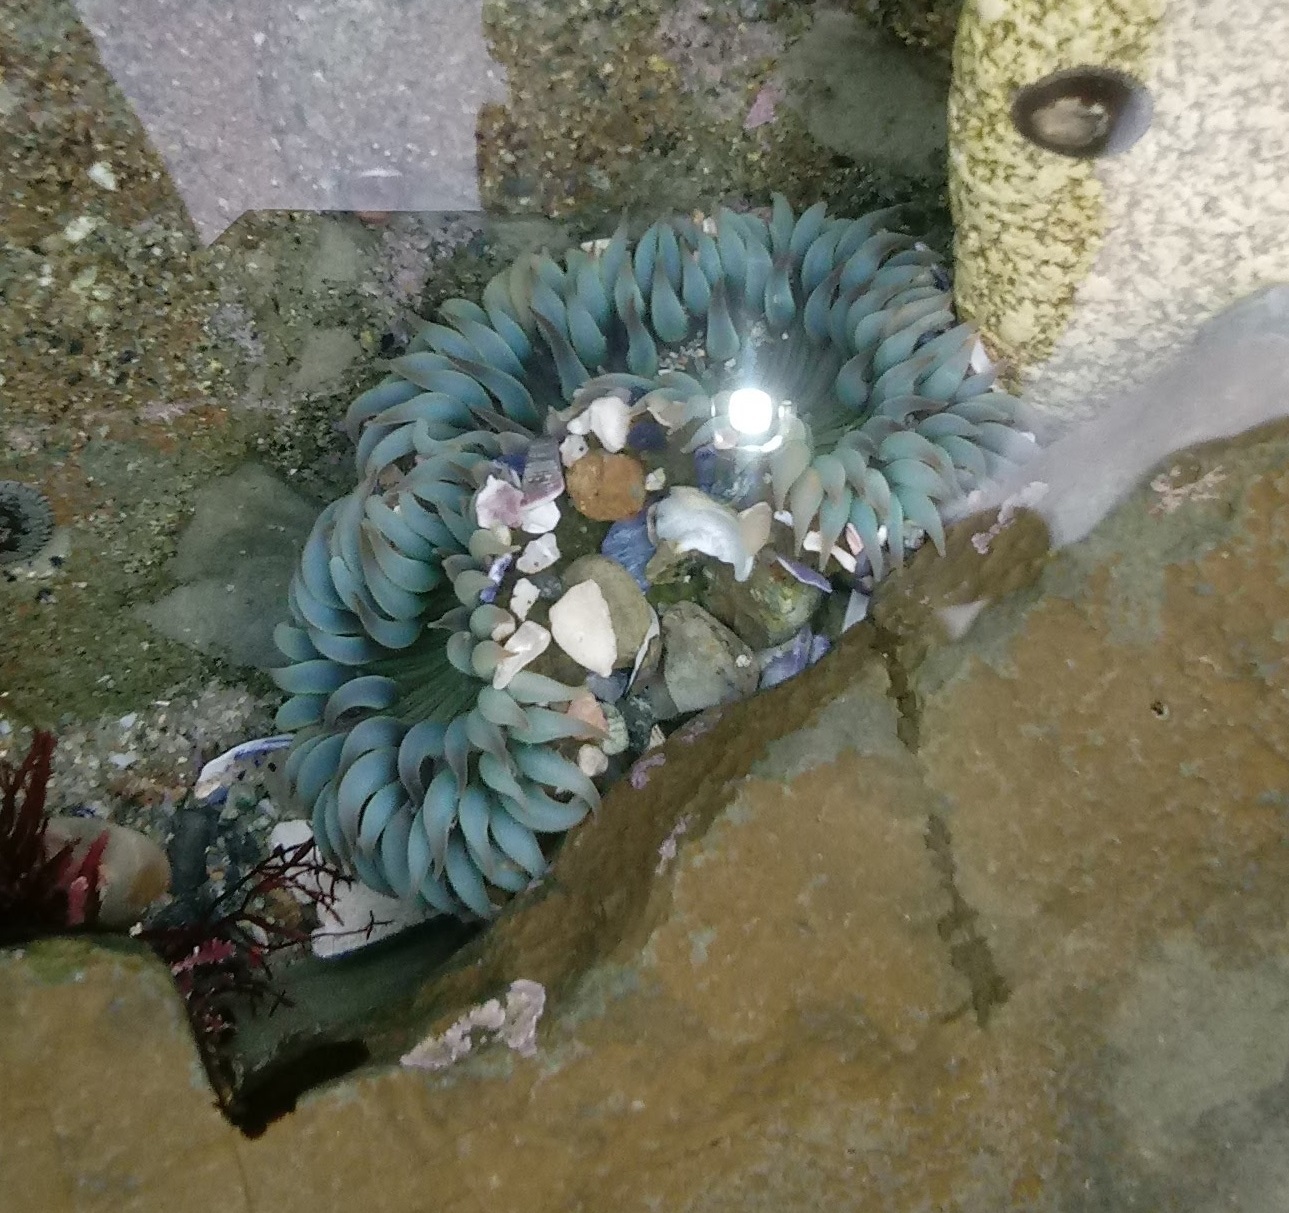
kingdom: Animalia
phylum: Cnidaria
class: Anthozoa
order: Actiniaria
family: Actiniidae
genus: Anthopleura
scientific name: Anthopleura sola
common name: Sun anemone
